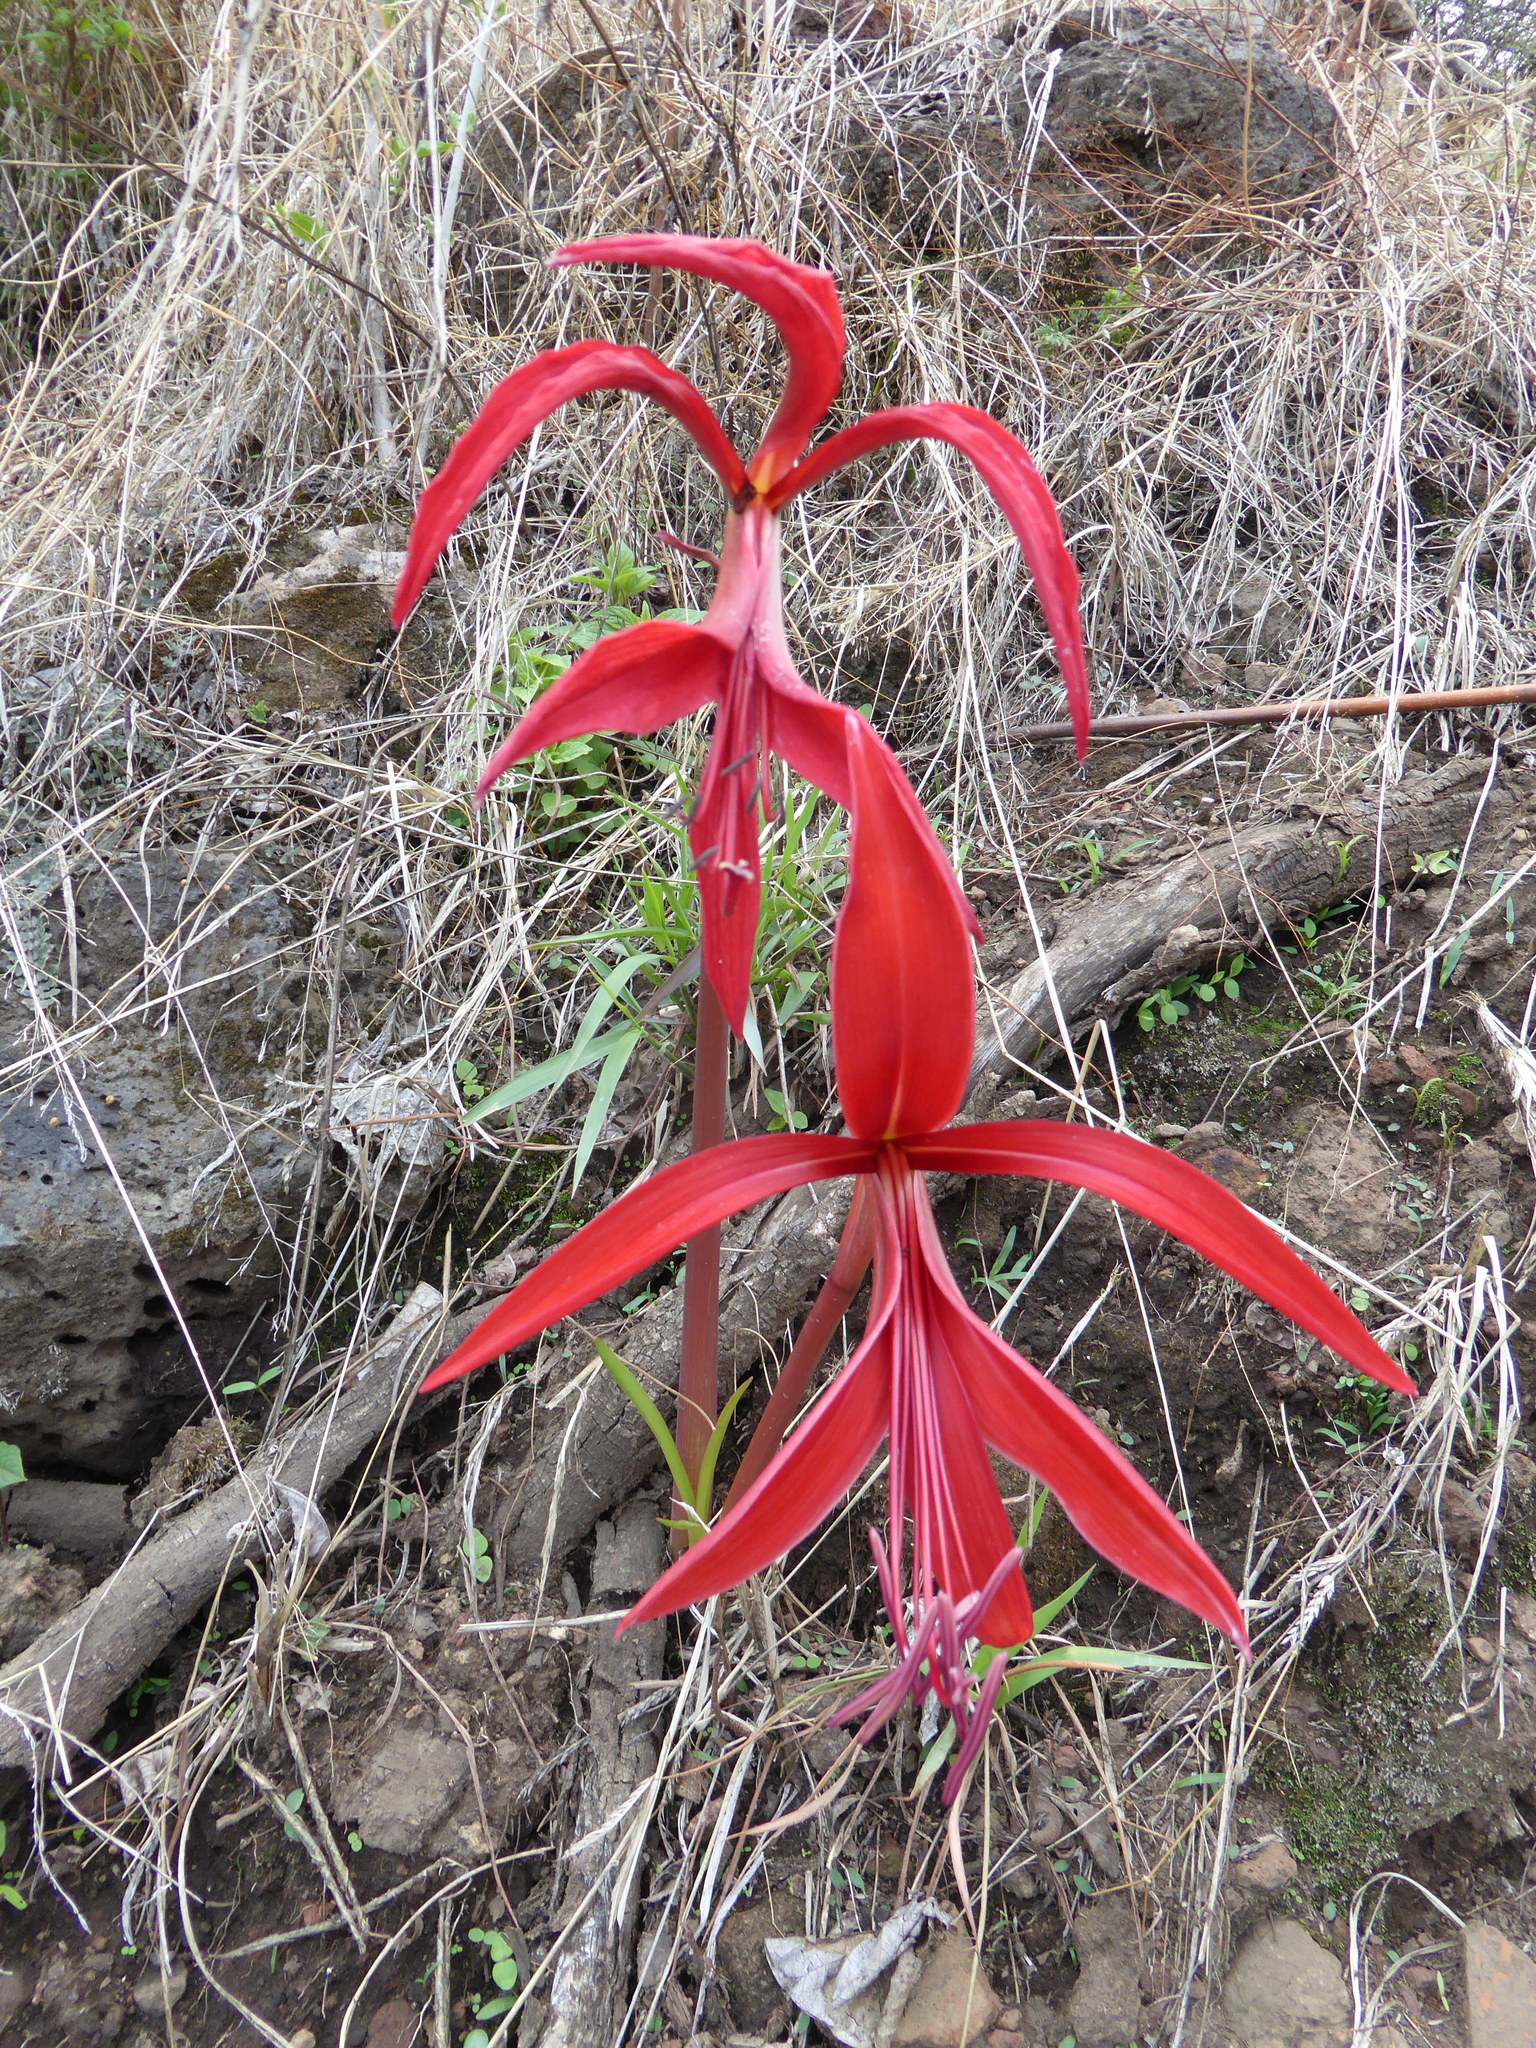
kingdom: Plantae
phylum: Tracheophyta
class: Liliopsida
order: Asparagales
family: Amaryllidaceae
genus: Sprekelia
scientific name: Sprekelia formosissima
